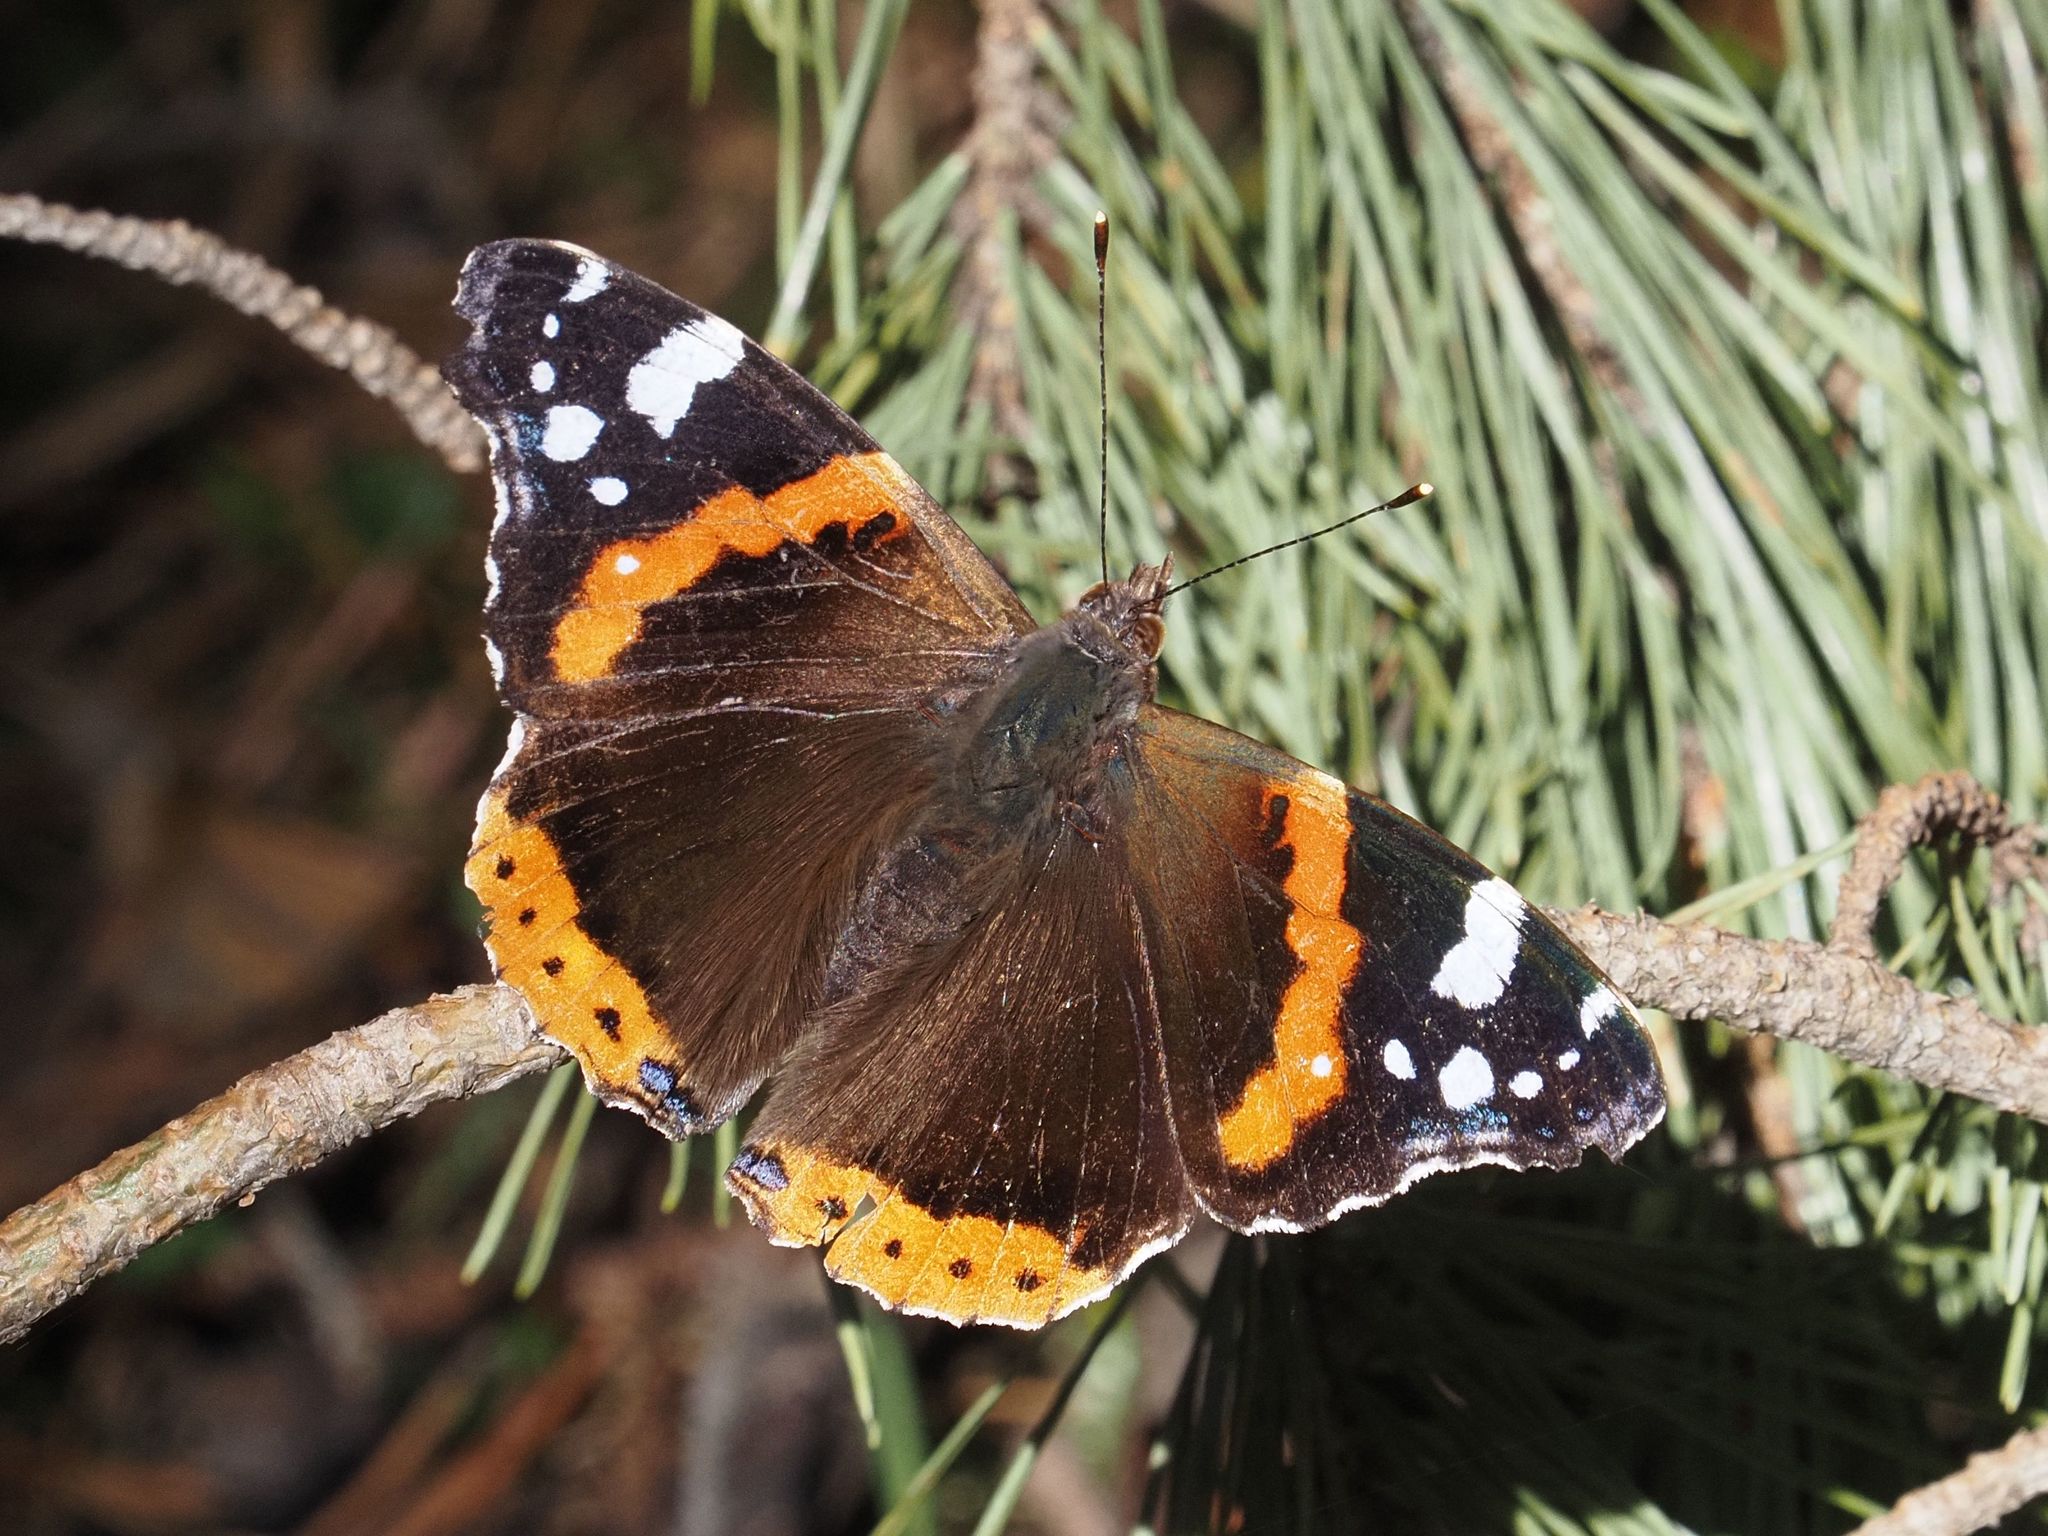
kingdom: Animalia
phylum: Arthropoda
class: Insecta
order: Lepidoptera
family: Nymphalidae
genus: Vanessa
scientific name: Vanessa atalanta
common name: Red admiral
